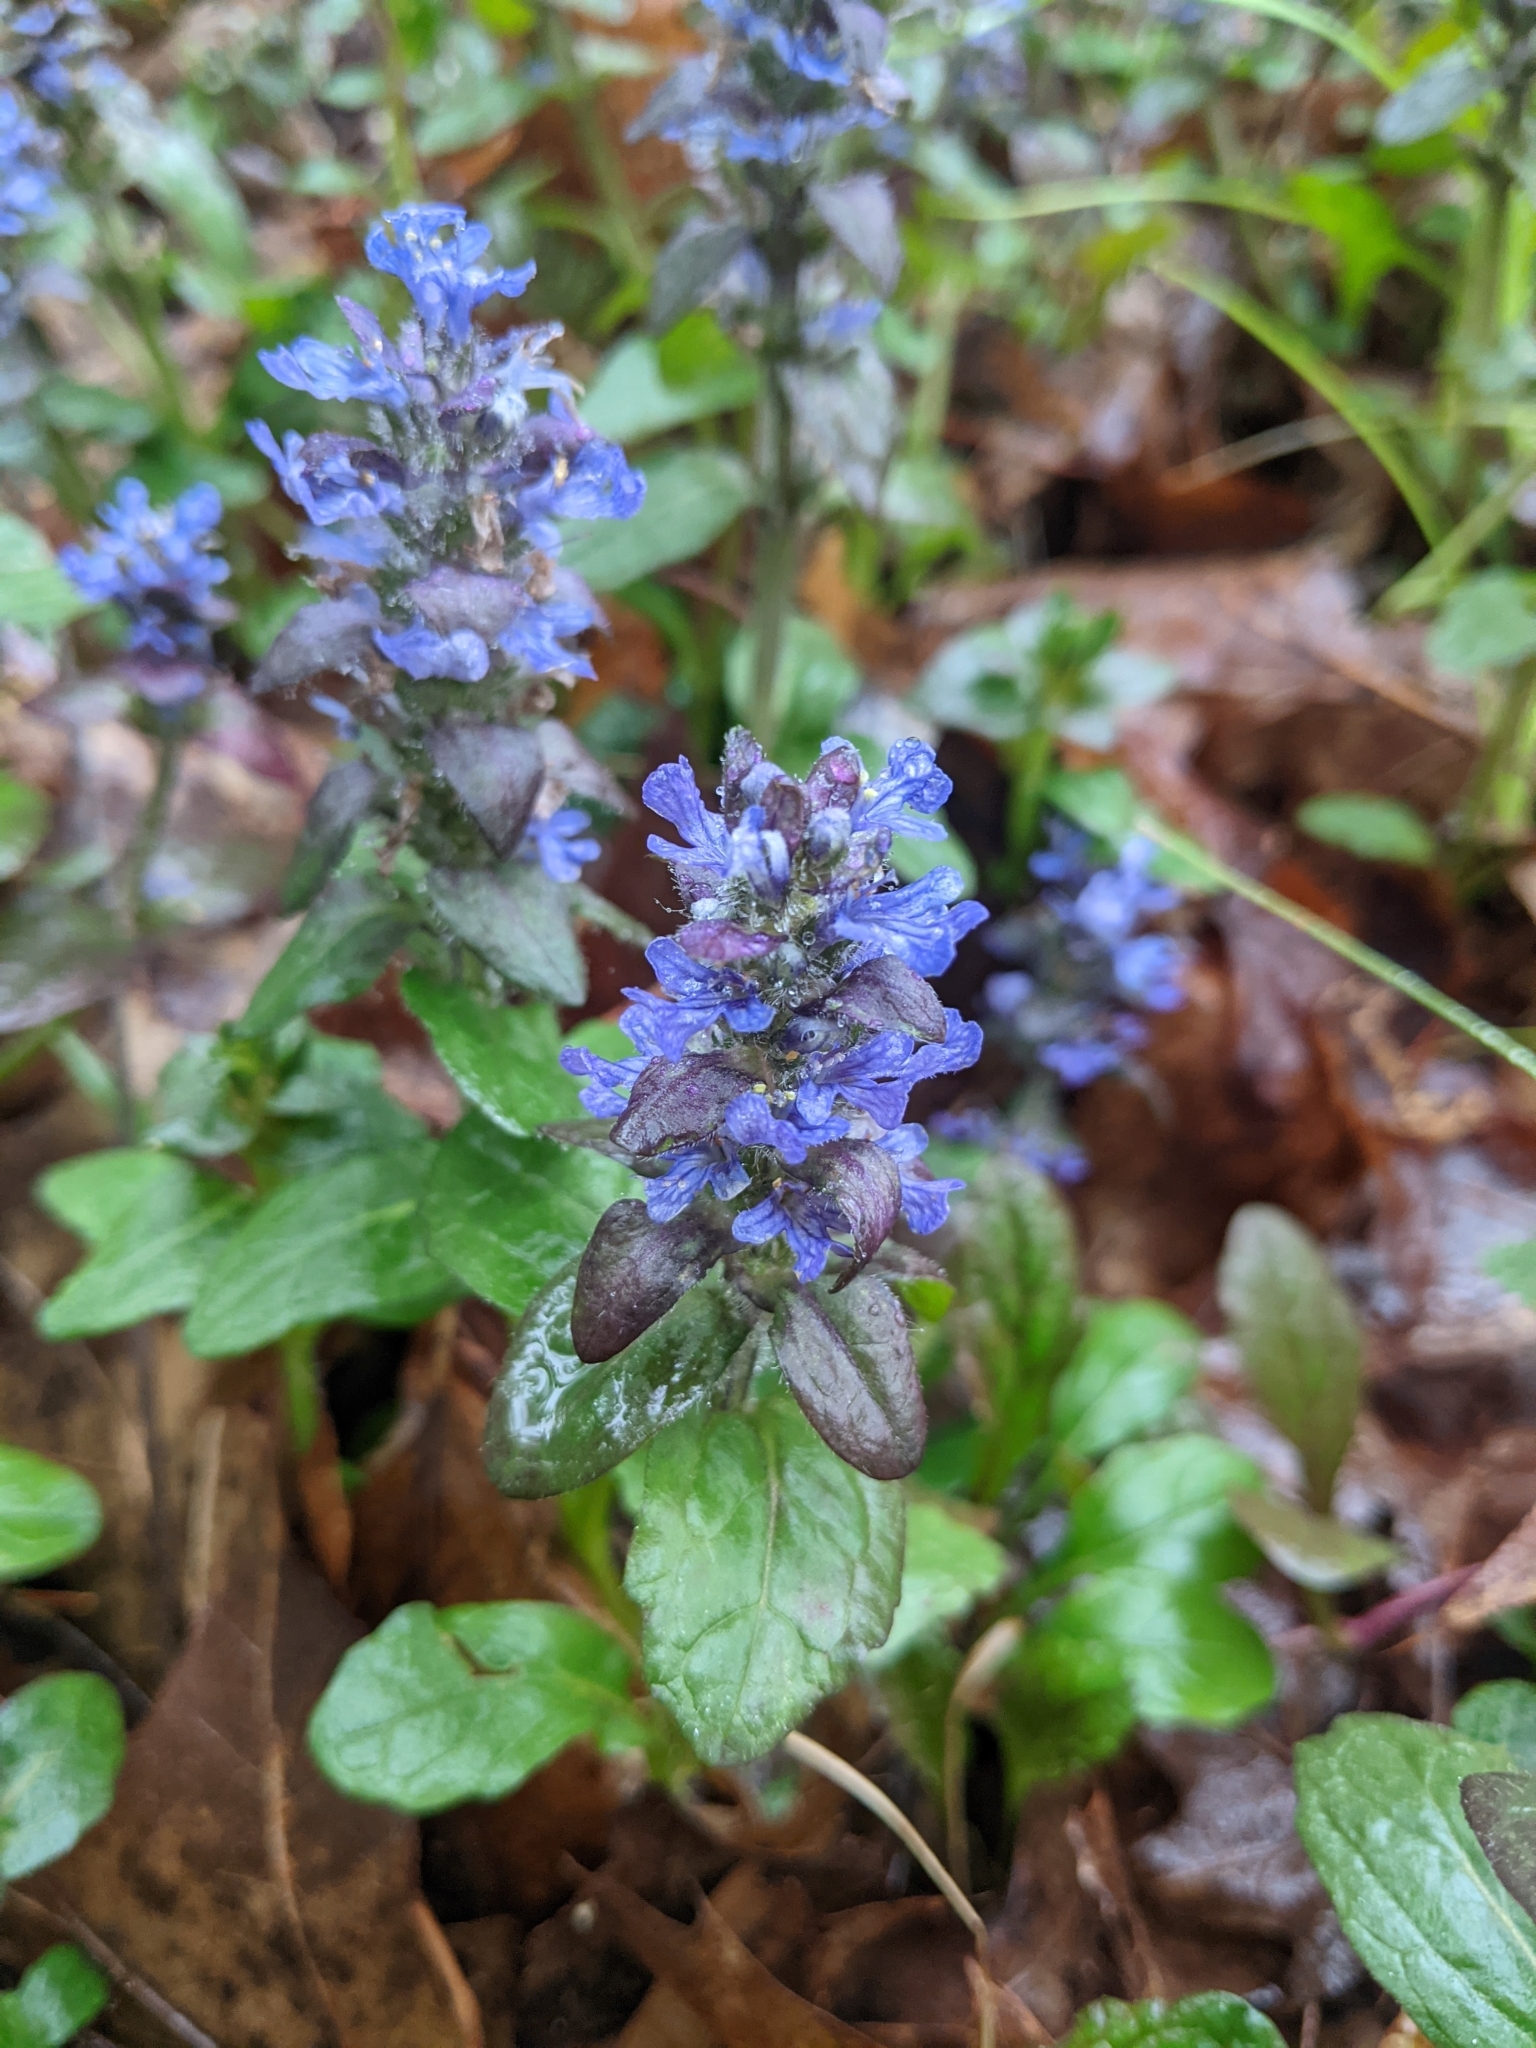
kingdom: Plantae
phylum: Tracheophyta
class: Magnoliopsida
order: Lamiales
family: Lamiaceae
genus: Ajuga
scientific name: Ajuga reptans
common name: Bugle
